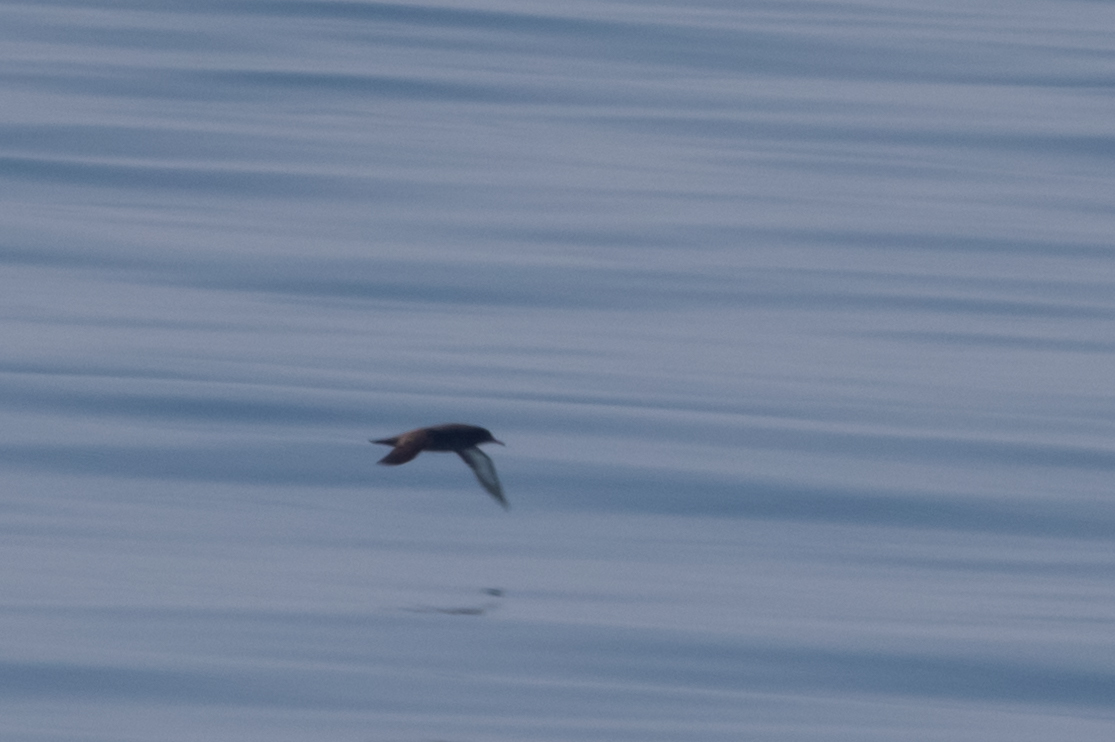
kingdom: Animalia
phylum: Chordata
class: Aves
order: Procellariiformes
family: Procellariidae
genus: Puffinus
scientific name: Puffinus griseus
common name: Sooty shearwater
